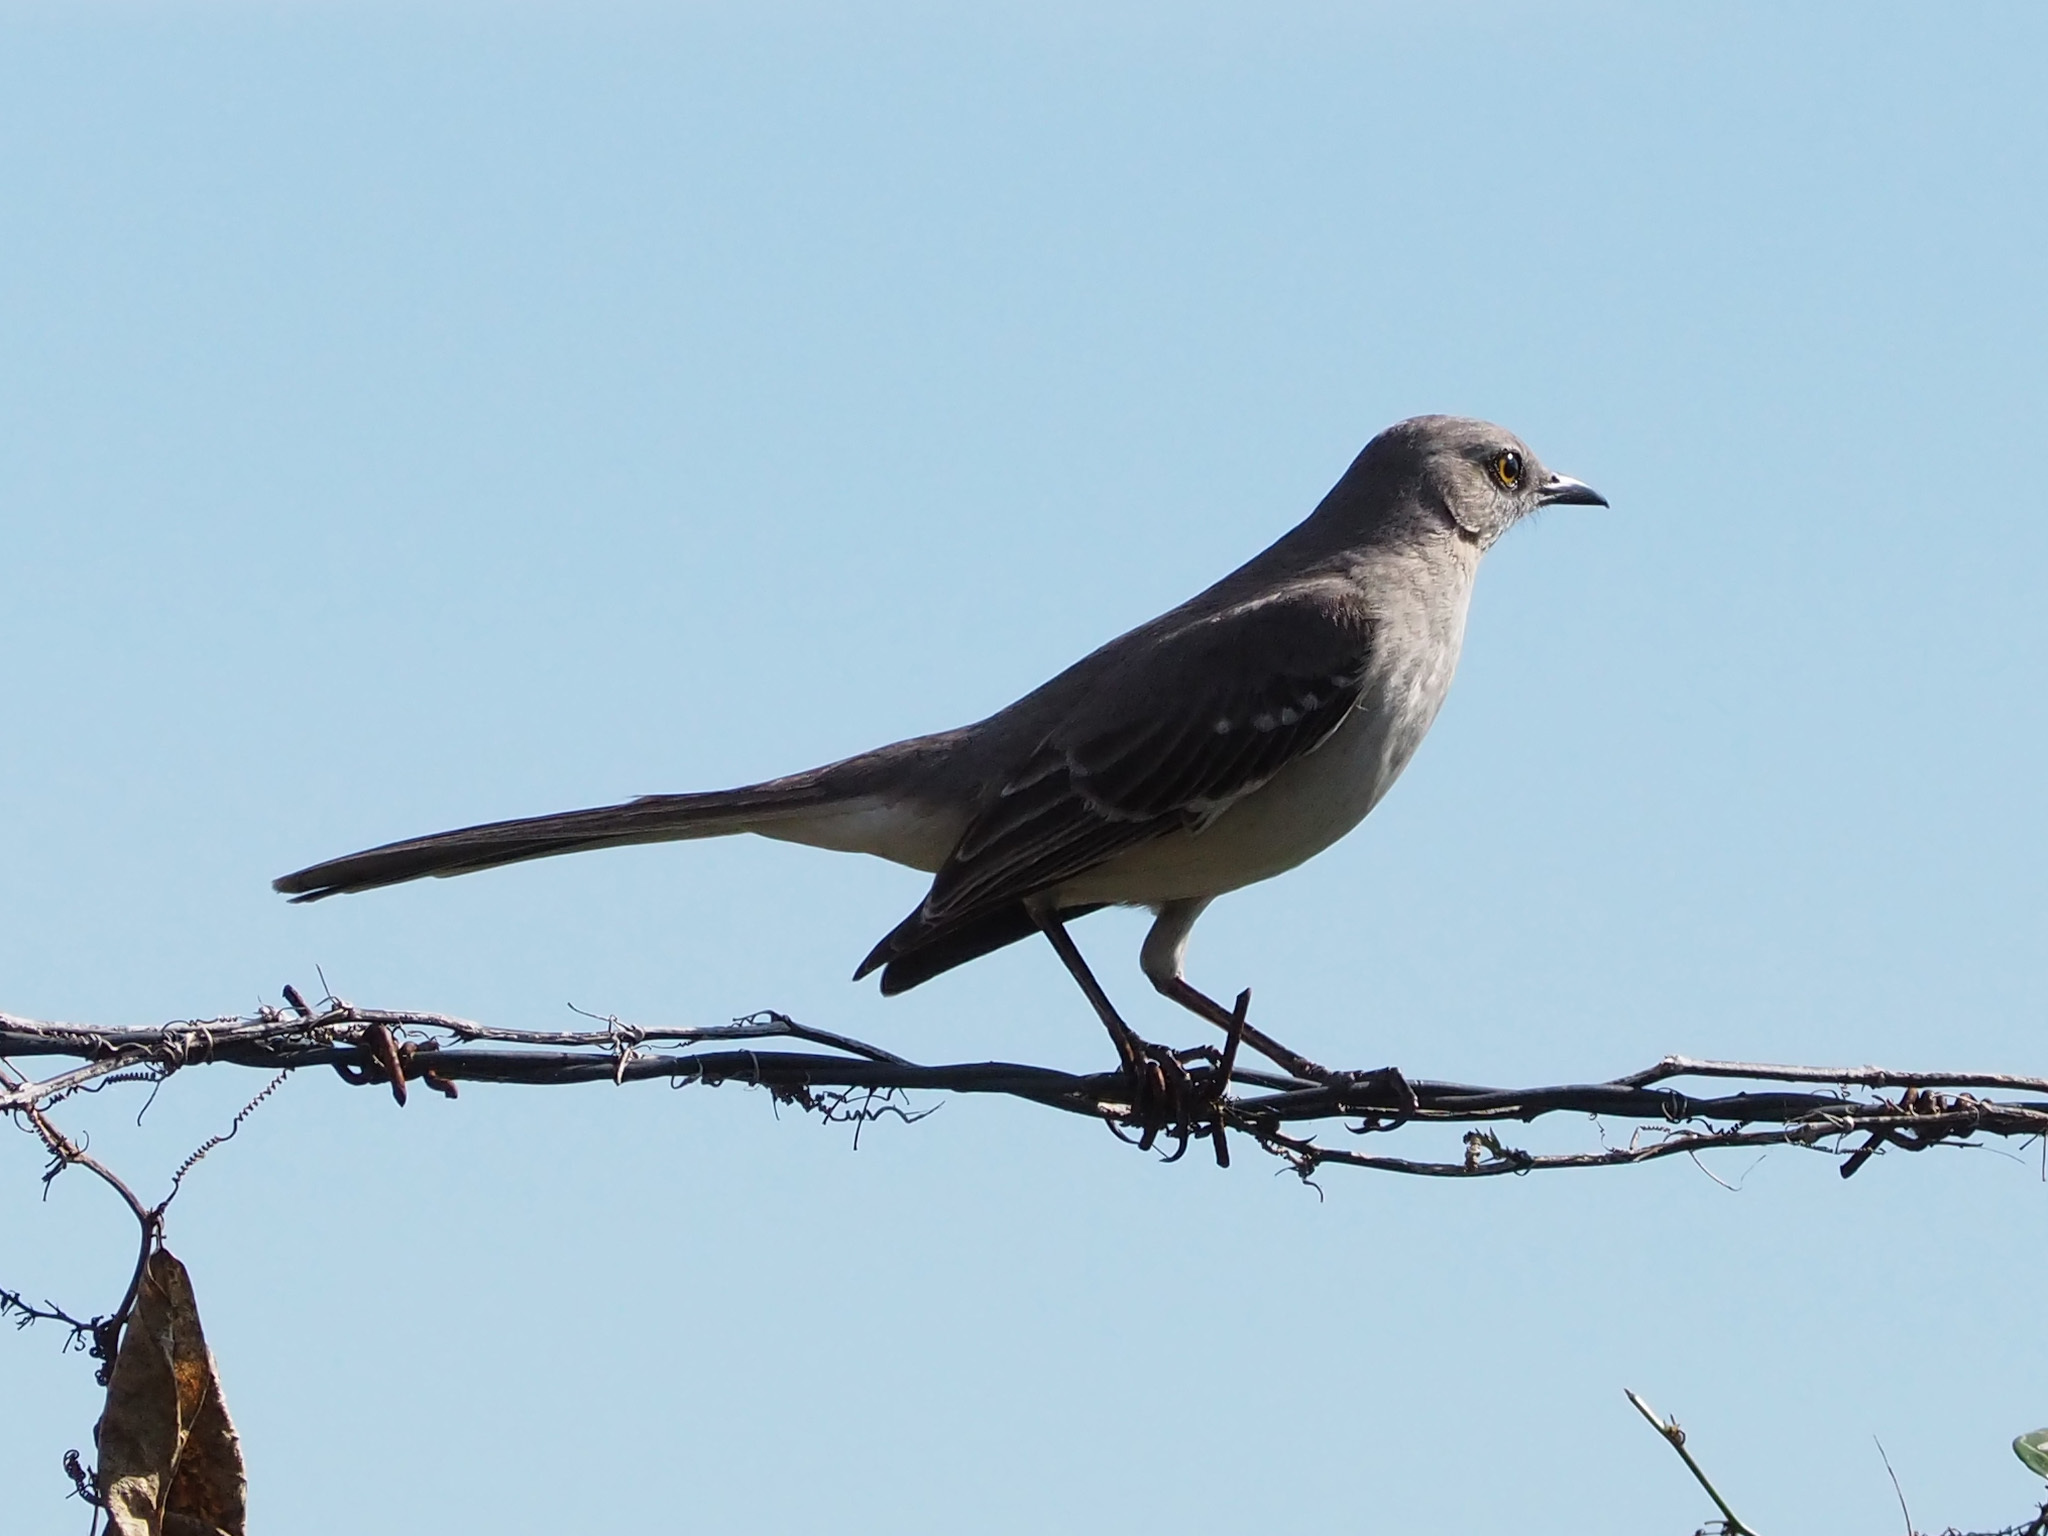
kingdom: Animalia
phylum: Chordata
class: Aves
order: Passeriformes
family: Mimidae
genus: Mimus
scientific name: Mimus polyglottos
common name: Northern mockingbird
